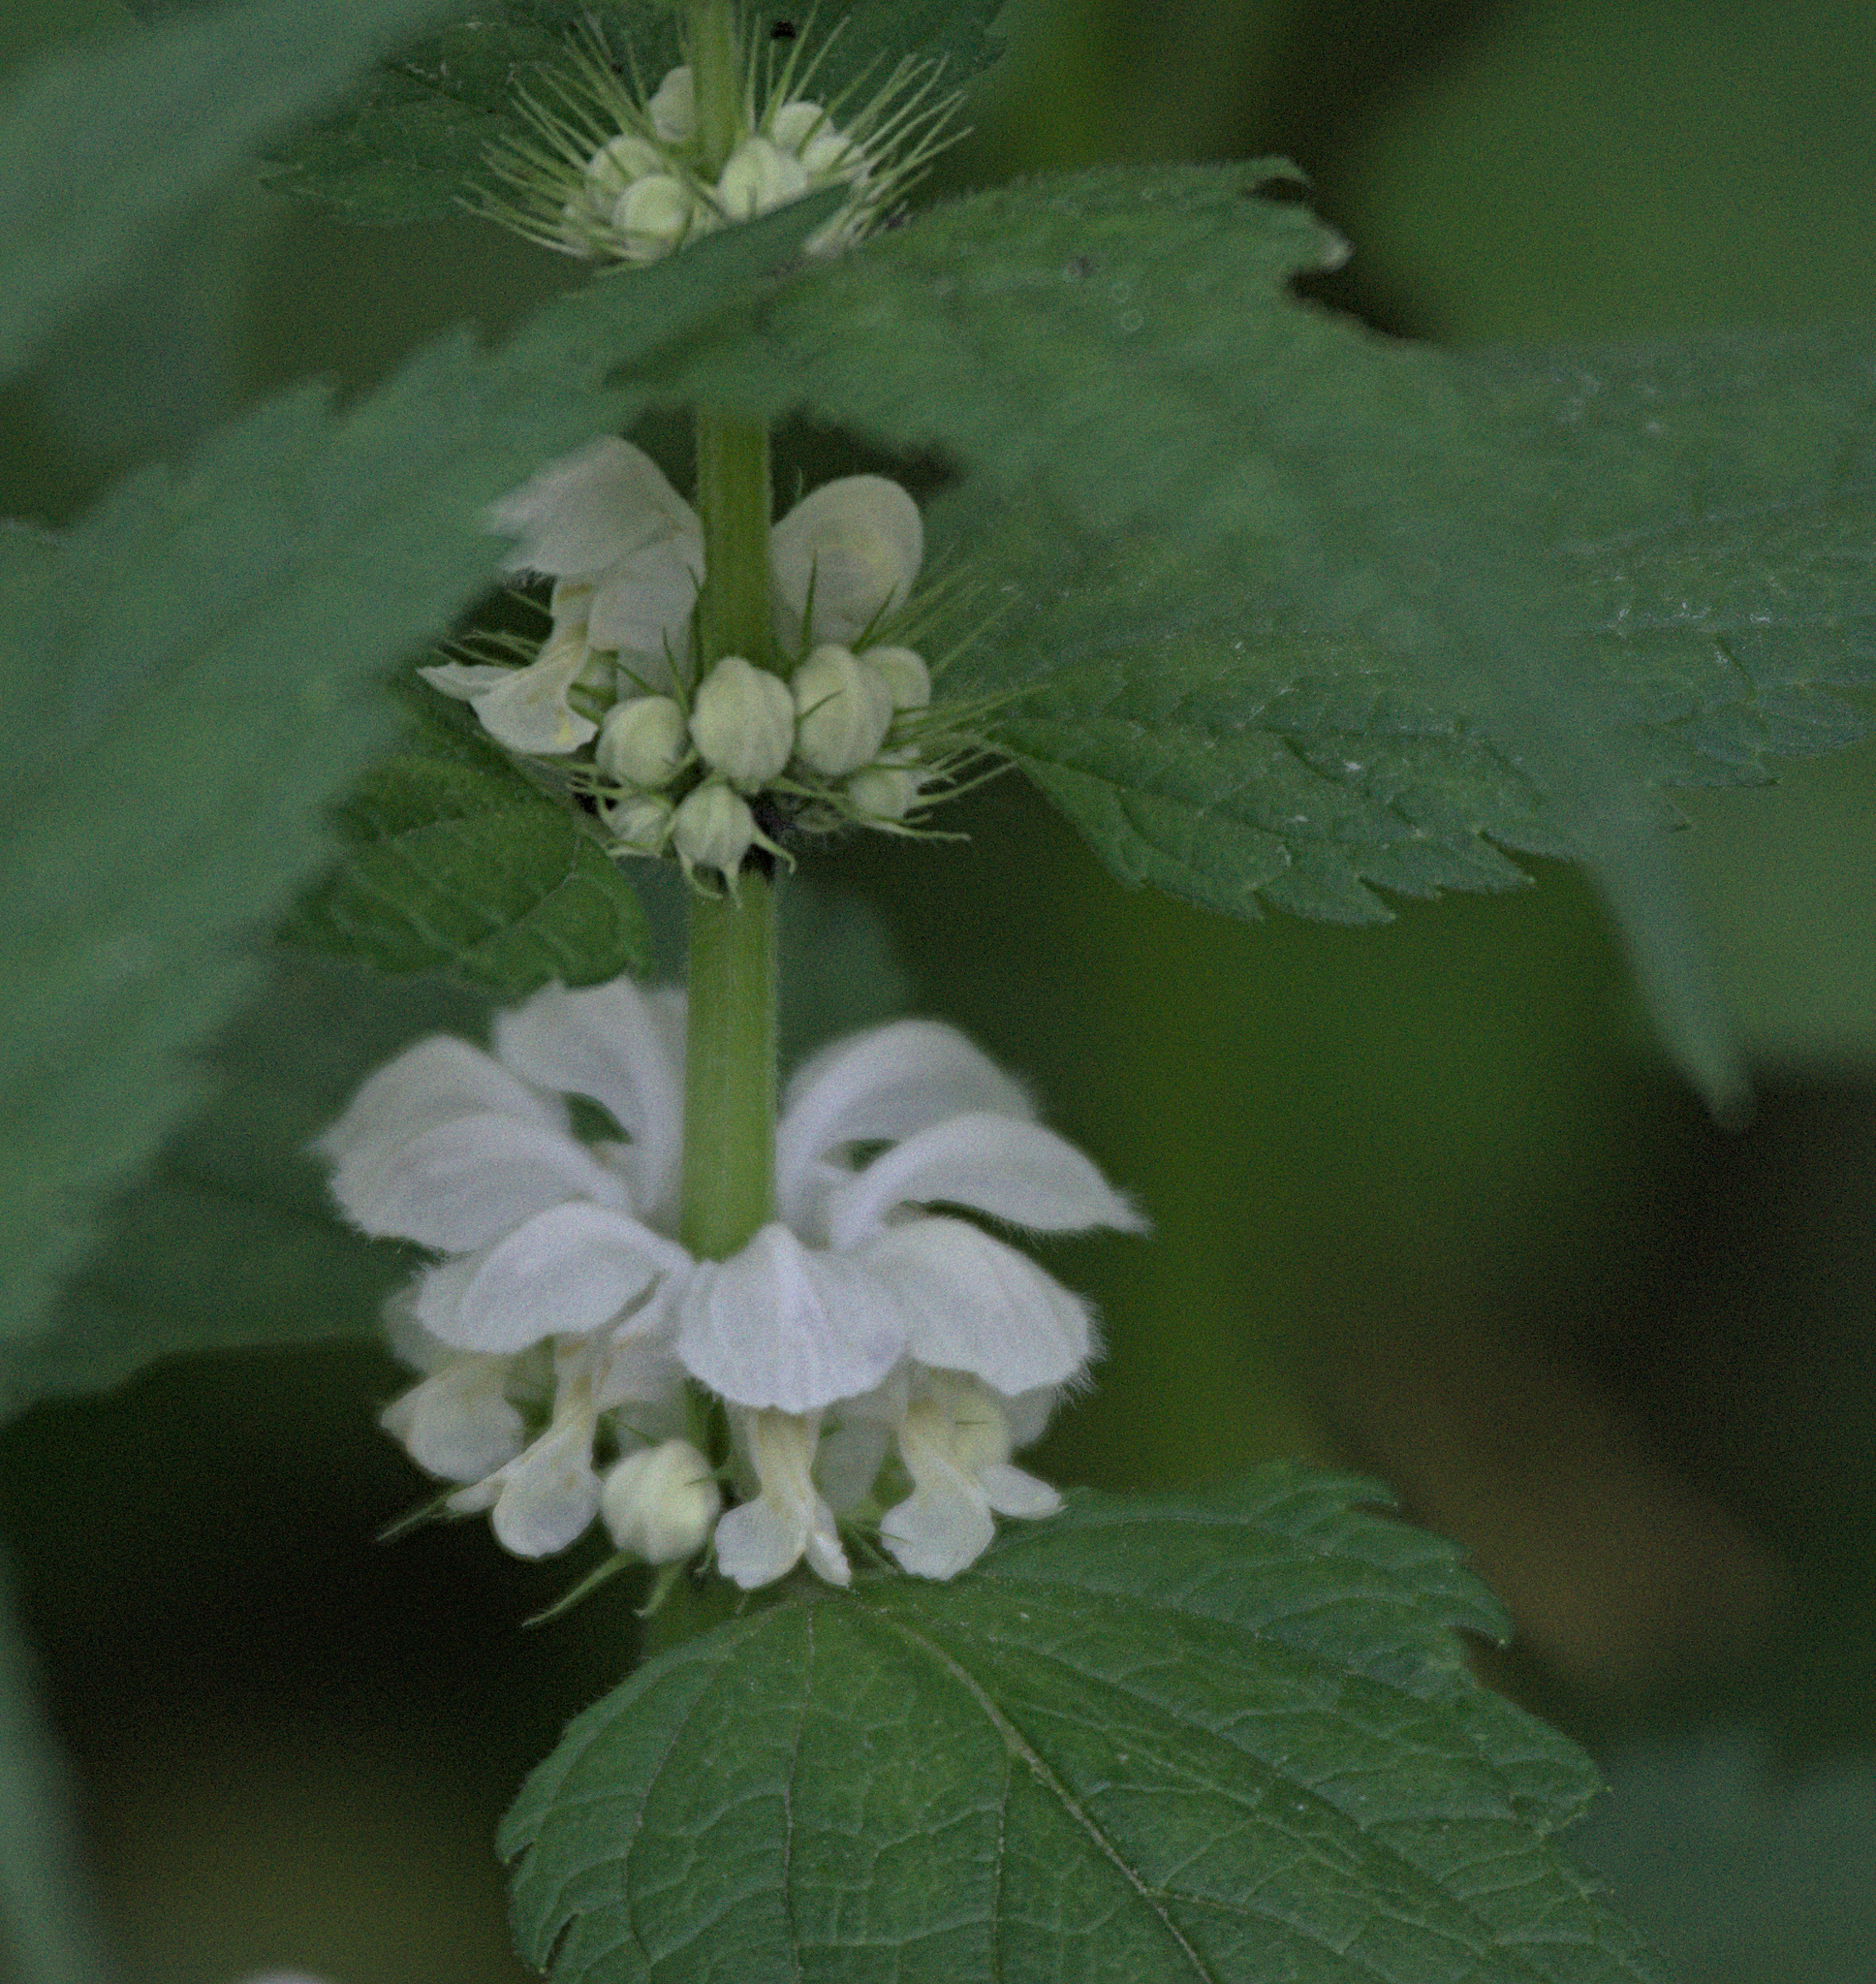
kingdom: Plantae
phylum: Tracheophyta
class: Magnoliopsida
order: Lamiales
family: Lamiaceae
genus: Lamium
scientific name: Lamium album
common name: White dead-nettle
